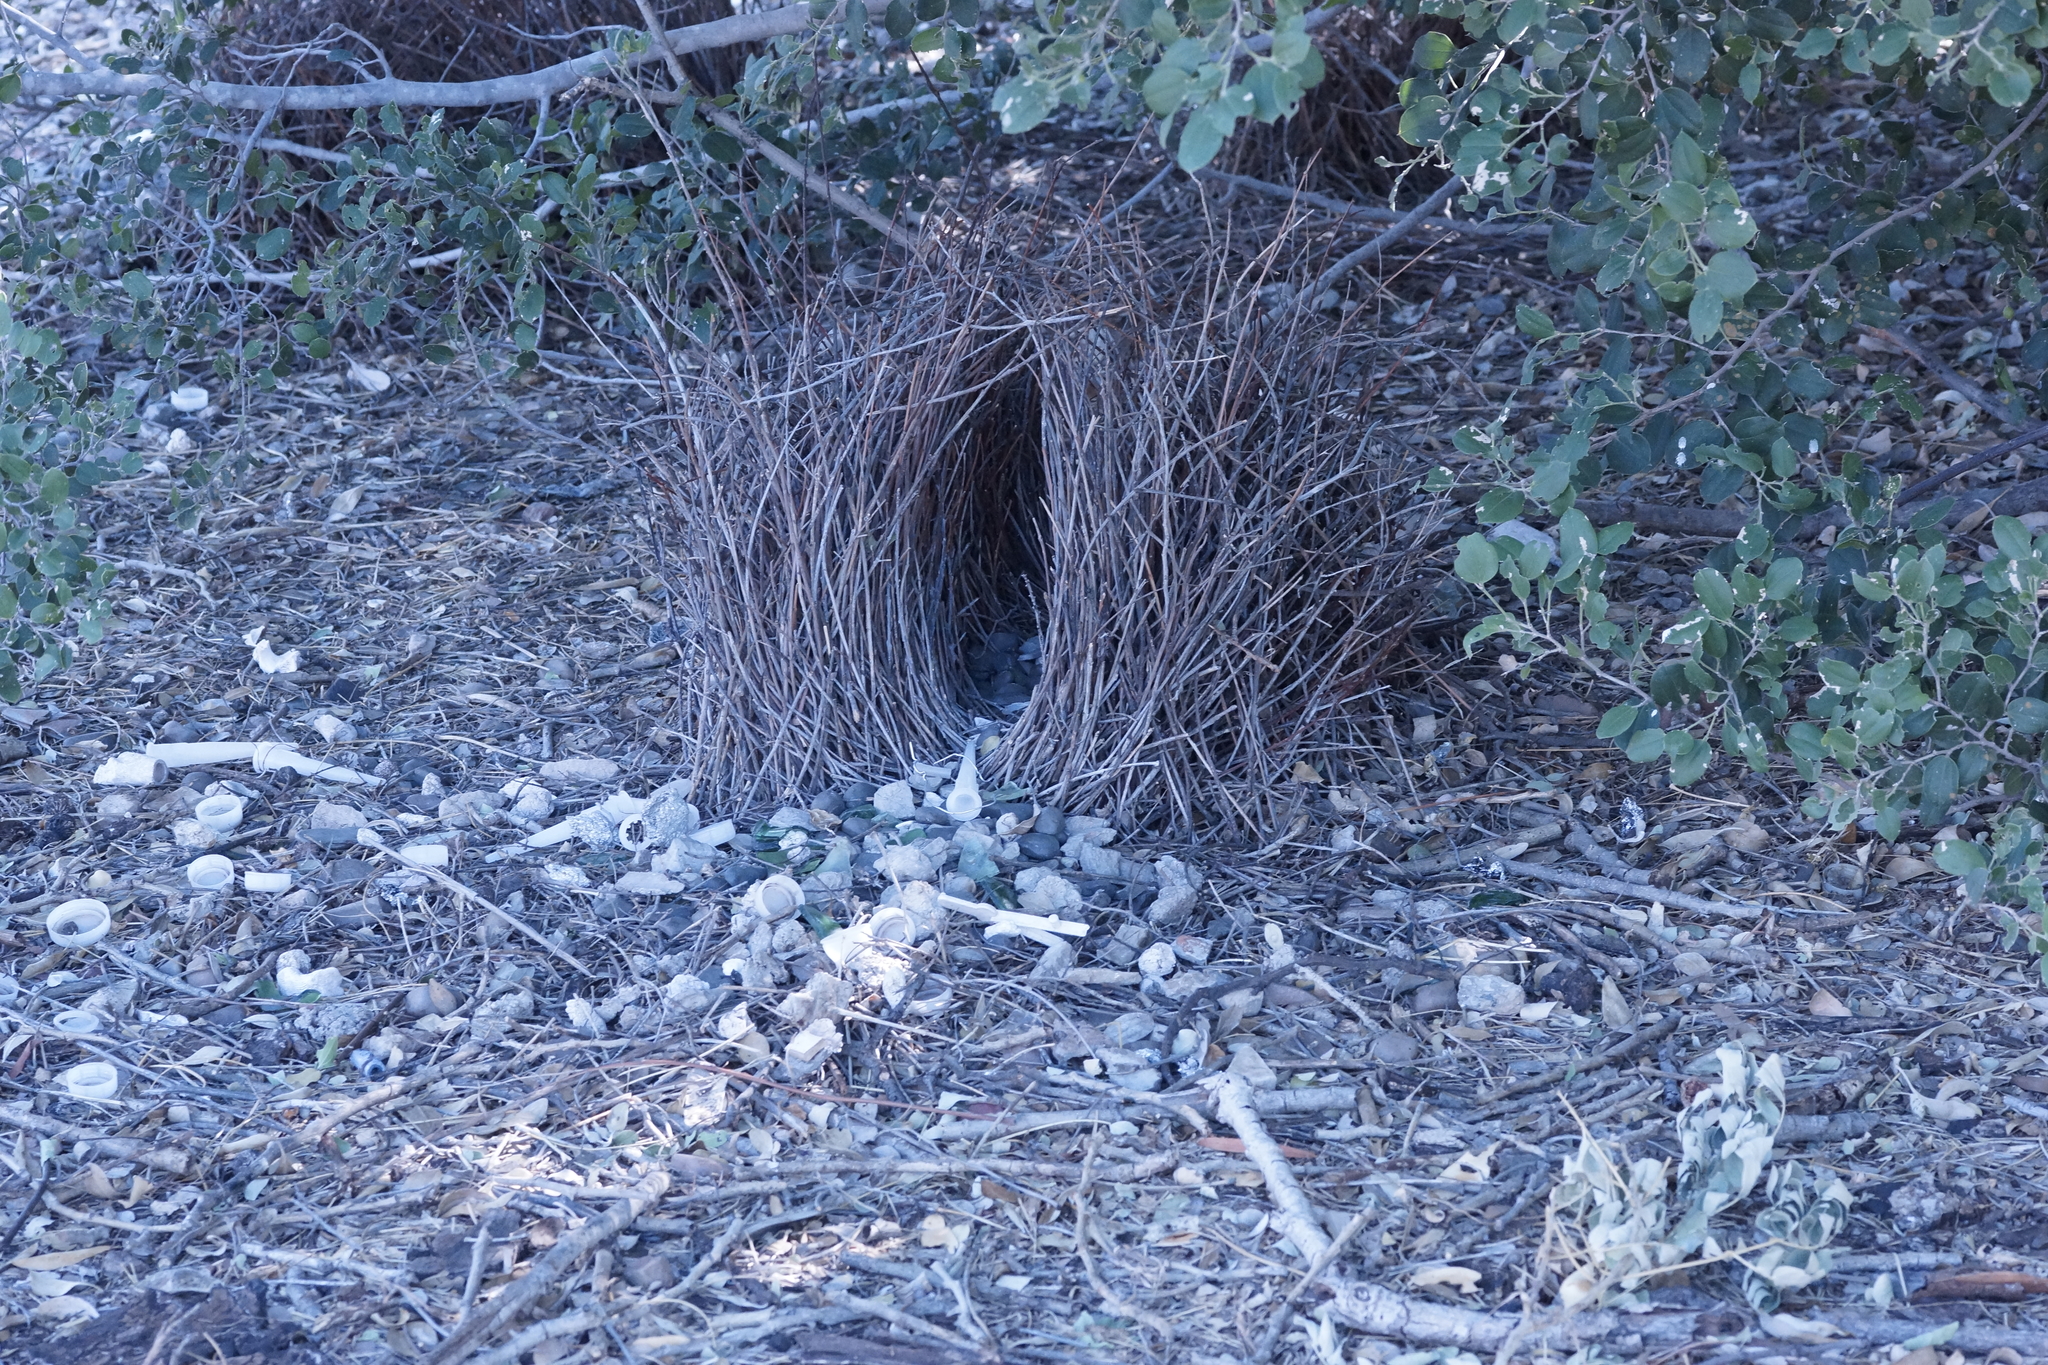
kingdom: Animalia
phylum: Chordata
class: Aves
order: Passeriformes
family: Ptilonorhynchidae
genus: Chlamydera
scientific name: Chlamydera nuchalis
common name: Great bowerbird
